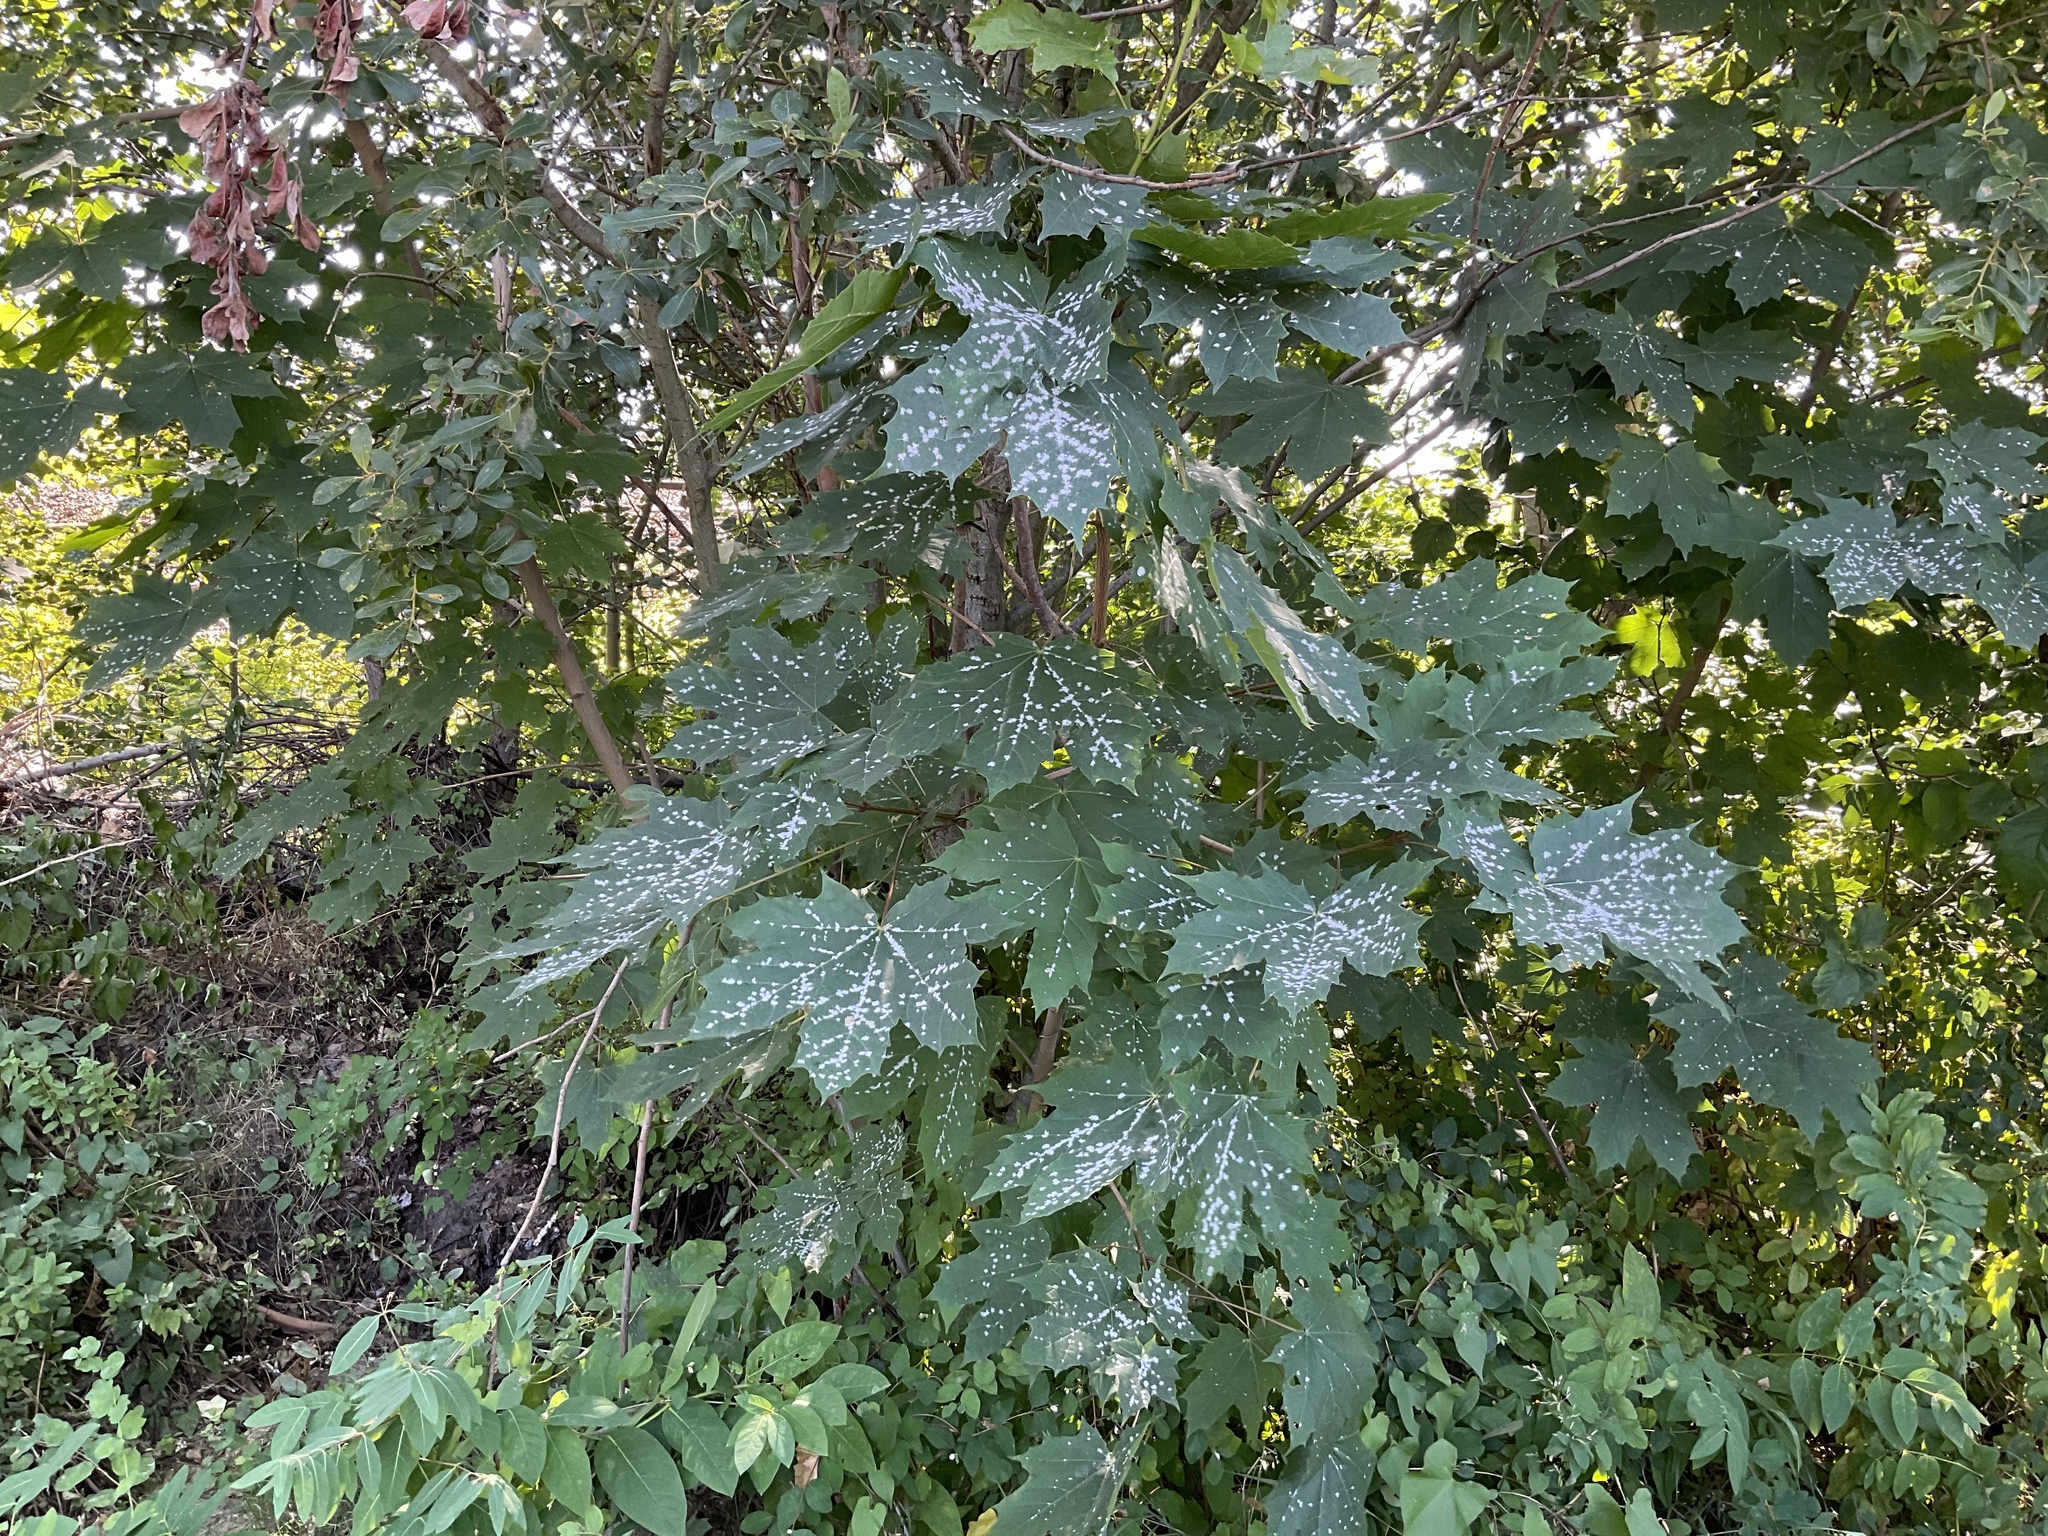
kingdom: Plantae
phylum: Tracheophyta
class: Magnoliopsida
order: Sapindales
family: Sapindaceae
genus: Acer
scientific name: Acer platanoides
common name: Norway maple
